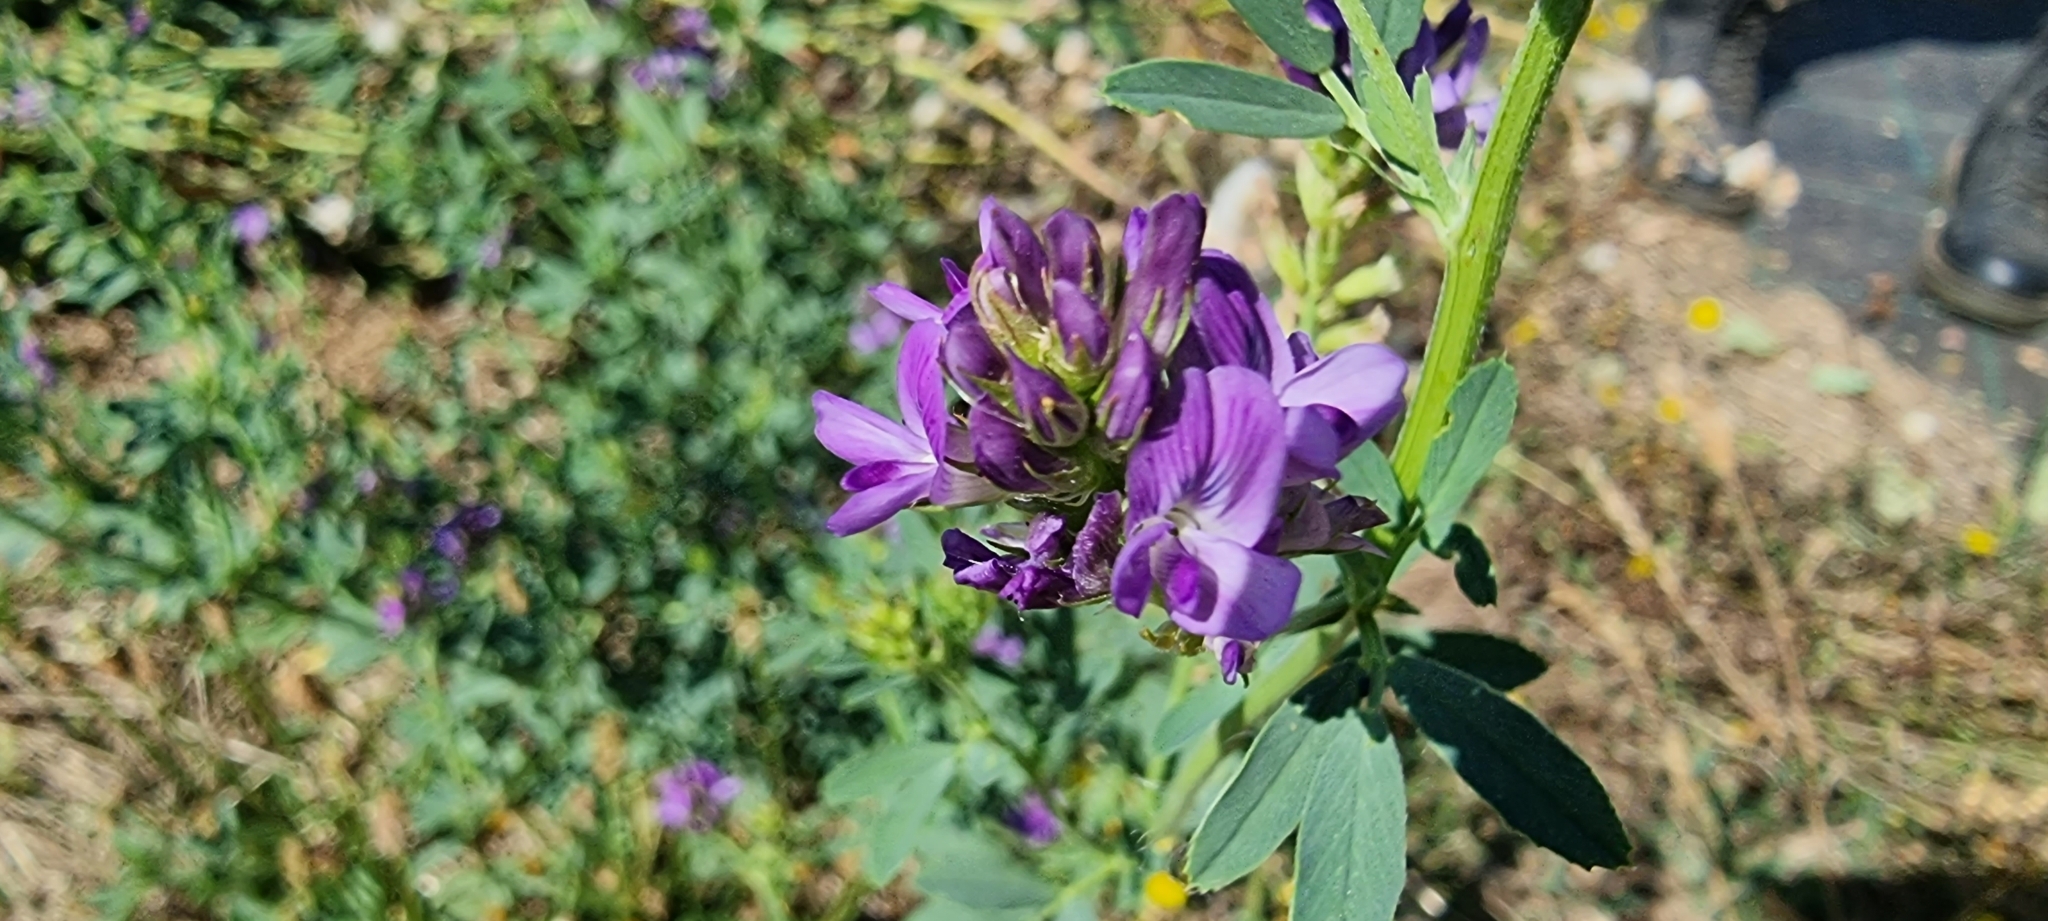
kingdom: Plantae
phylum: Tracheophyta
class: Magnoliopsida
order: Fabales
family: Fabaceae
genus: Medicago
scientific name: Medicago sativa
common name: Alfalfa
